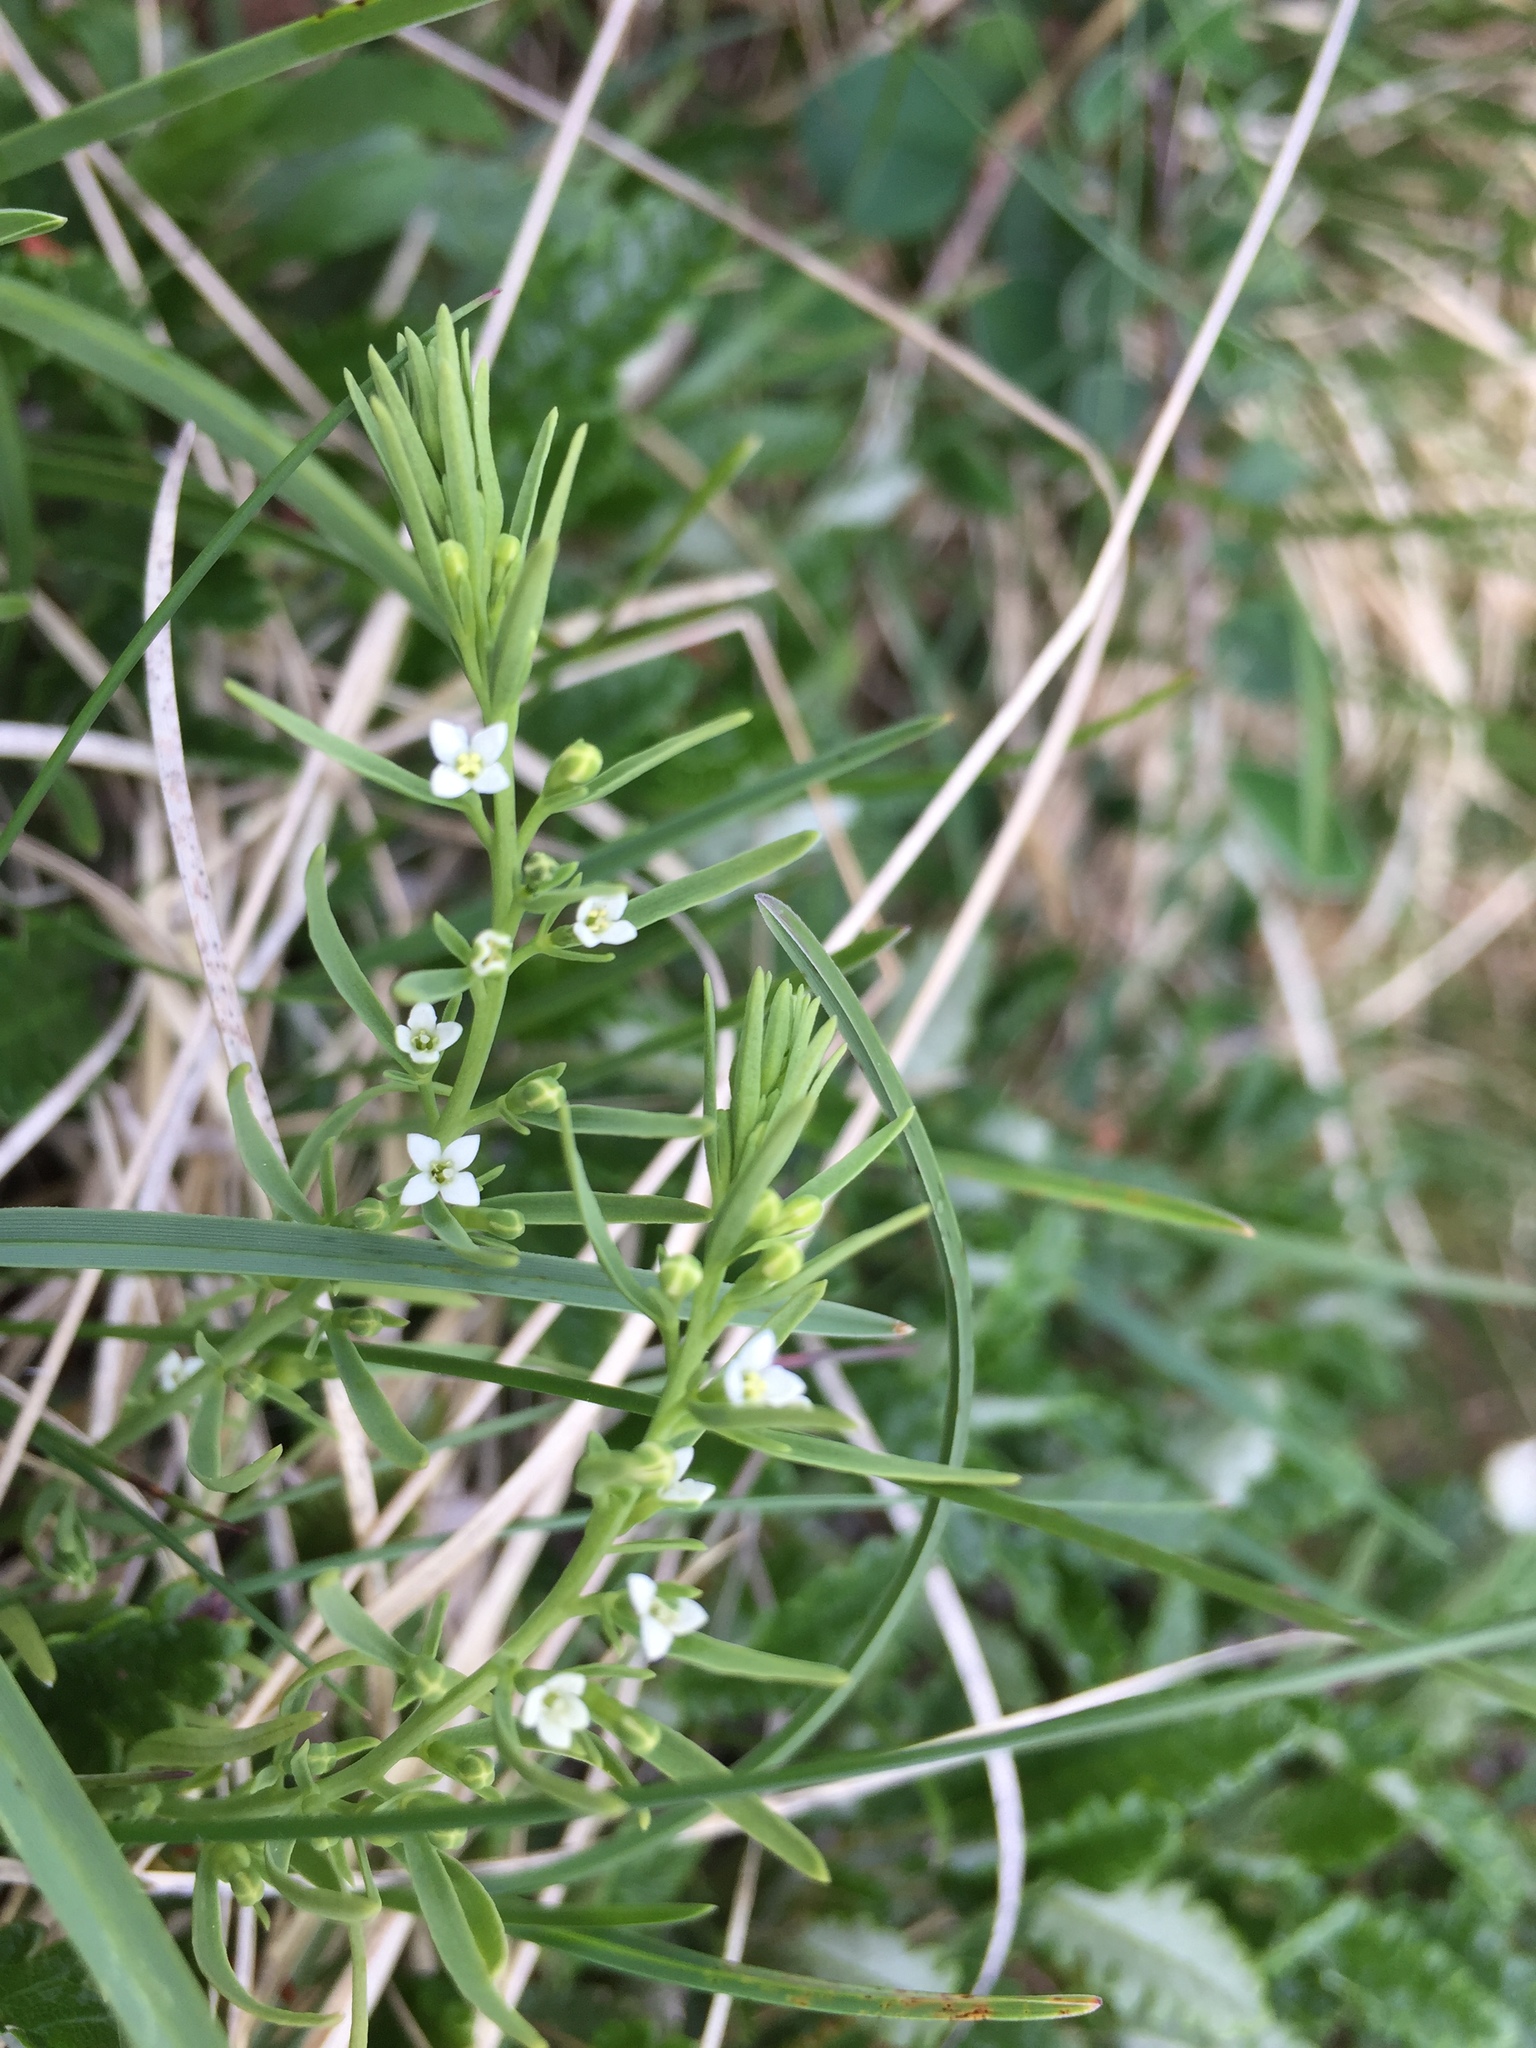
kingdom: Plantae
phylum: Tracheophyta
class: Magnoliopsida
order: Santalales
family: Thesiaceae
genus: Thesium
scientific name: Thesium alpinum
